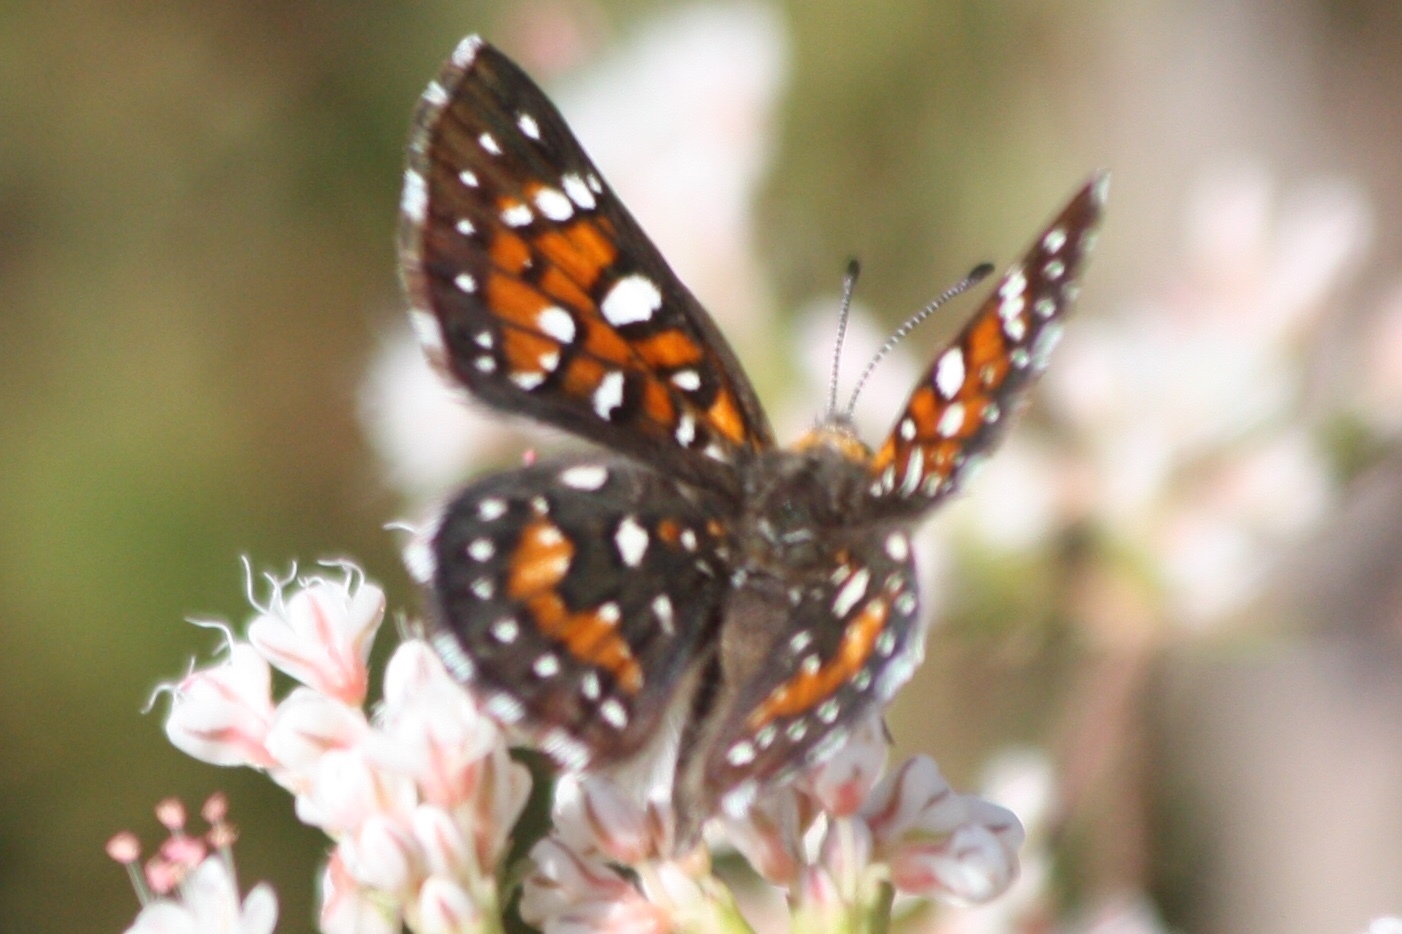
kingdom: Animalia
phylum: Arthropoda
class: Insecta
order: Lepidoptera
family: Riodinidae
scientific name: Riodinidae
